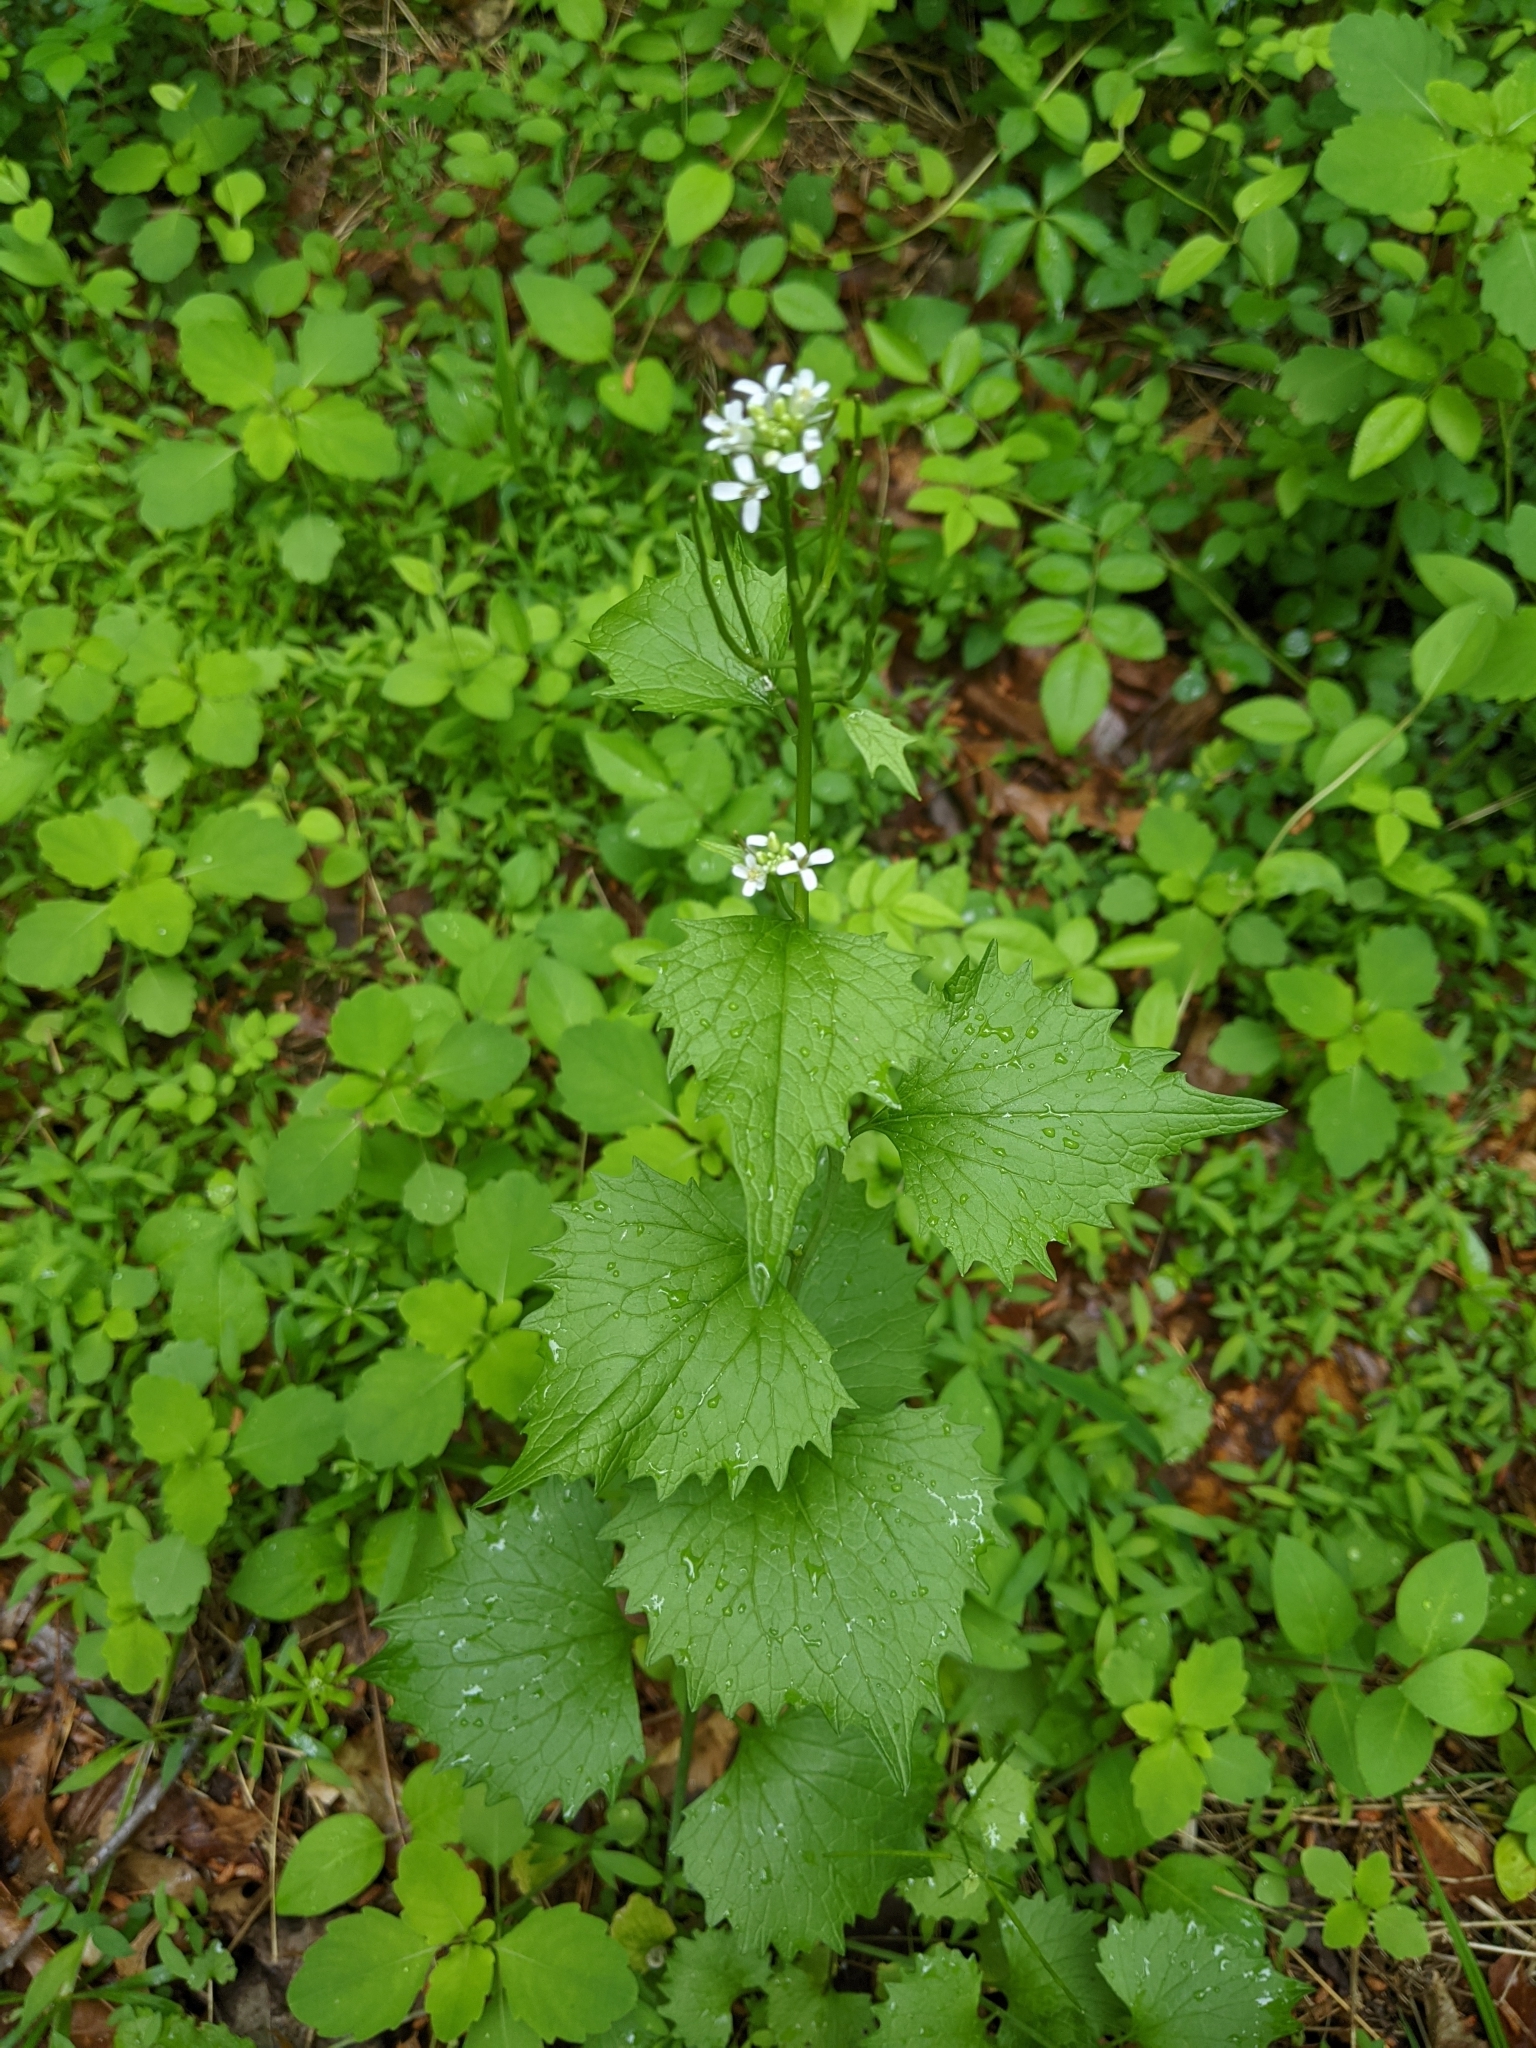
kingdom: Plantae
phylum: Tracheophyta
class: Magnoliopsida
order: Brassicales
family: Brassicaceae
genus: Alliaria
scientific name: Alliaria petiolata
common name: Garlic mustard
